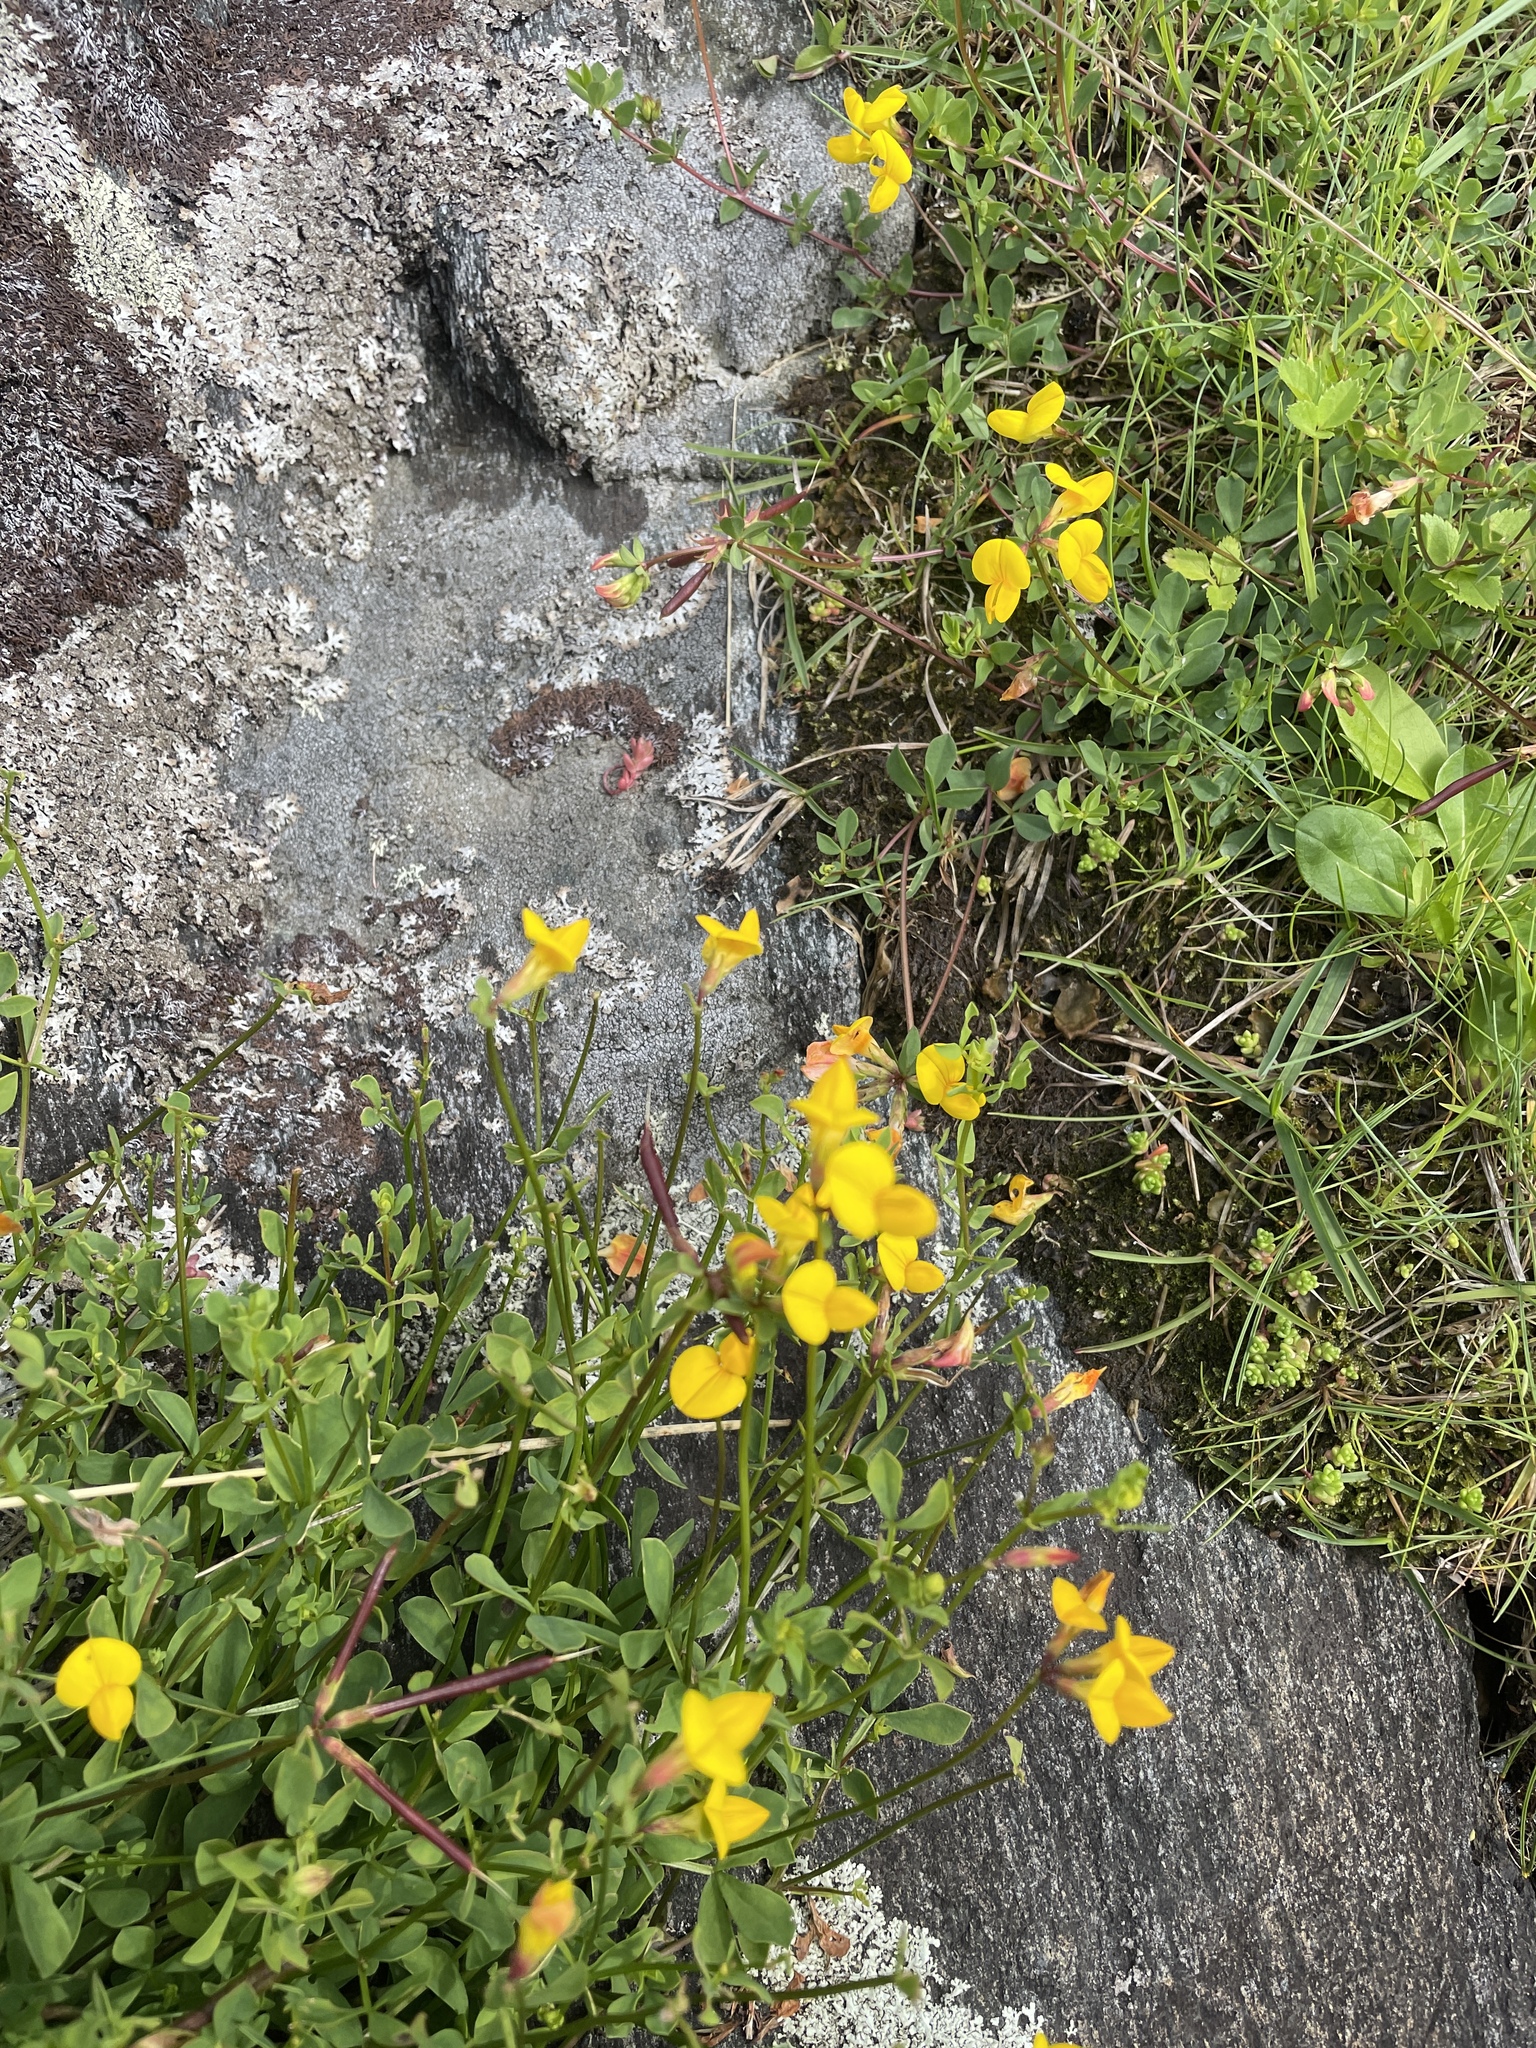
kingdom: Plantae
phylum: Tracheophyta
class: Magnoliopsida
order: Fabales
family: Fabaceae
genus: Lotus
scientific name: Lotus corniculatus
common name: Common bird's-foot-trefoil
